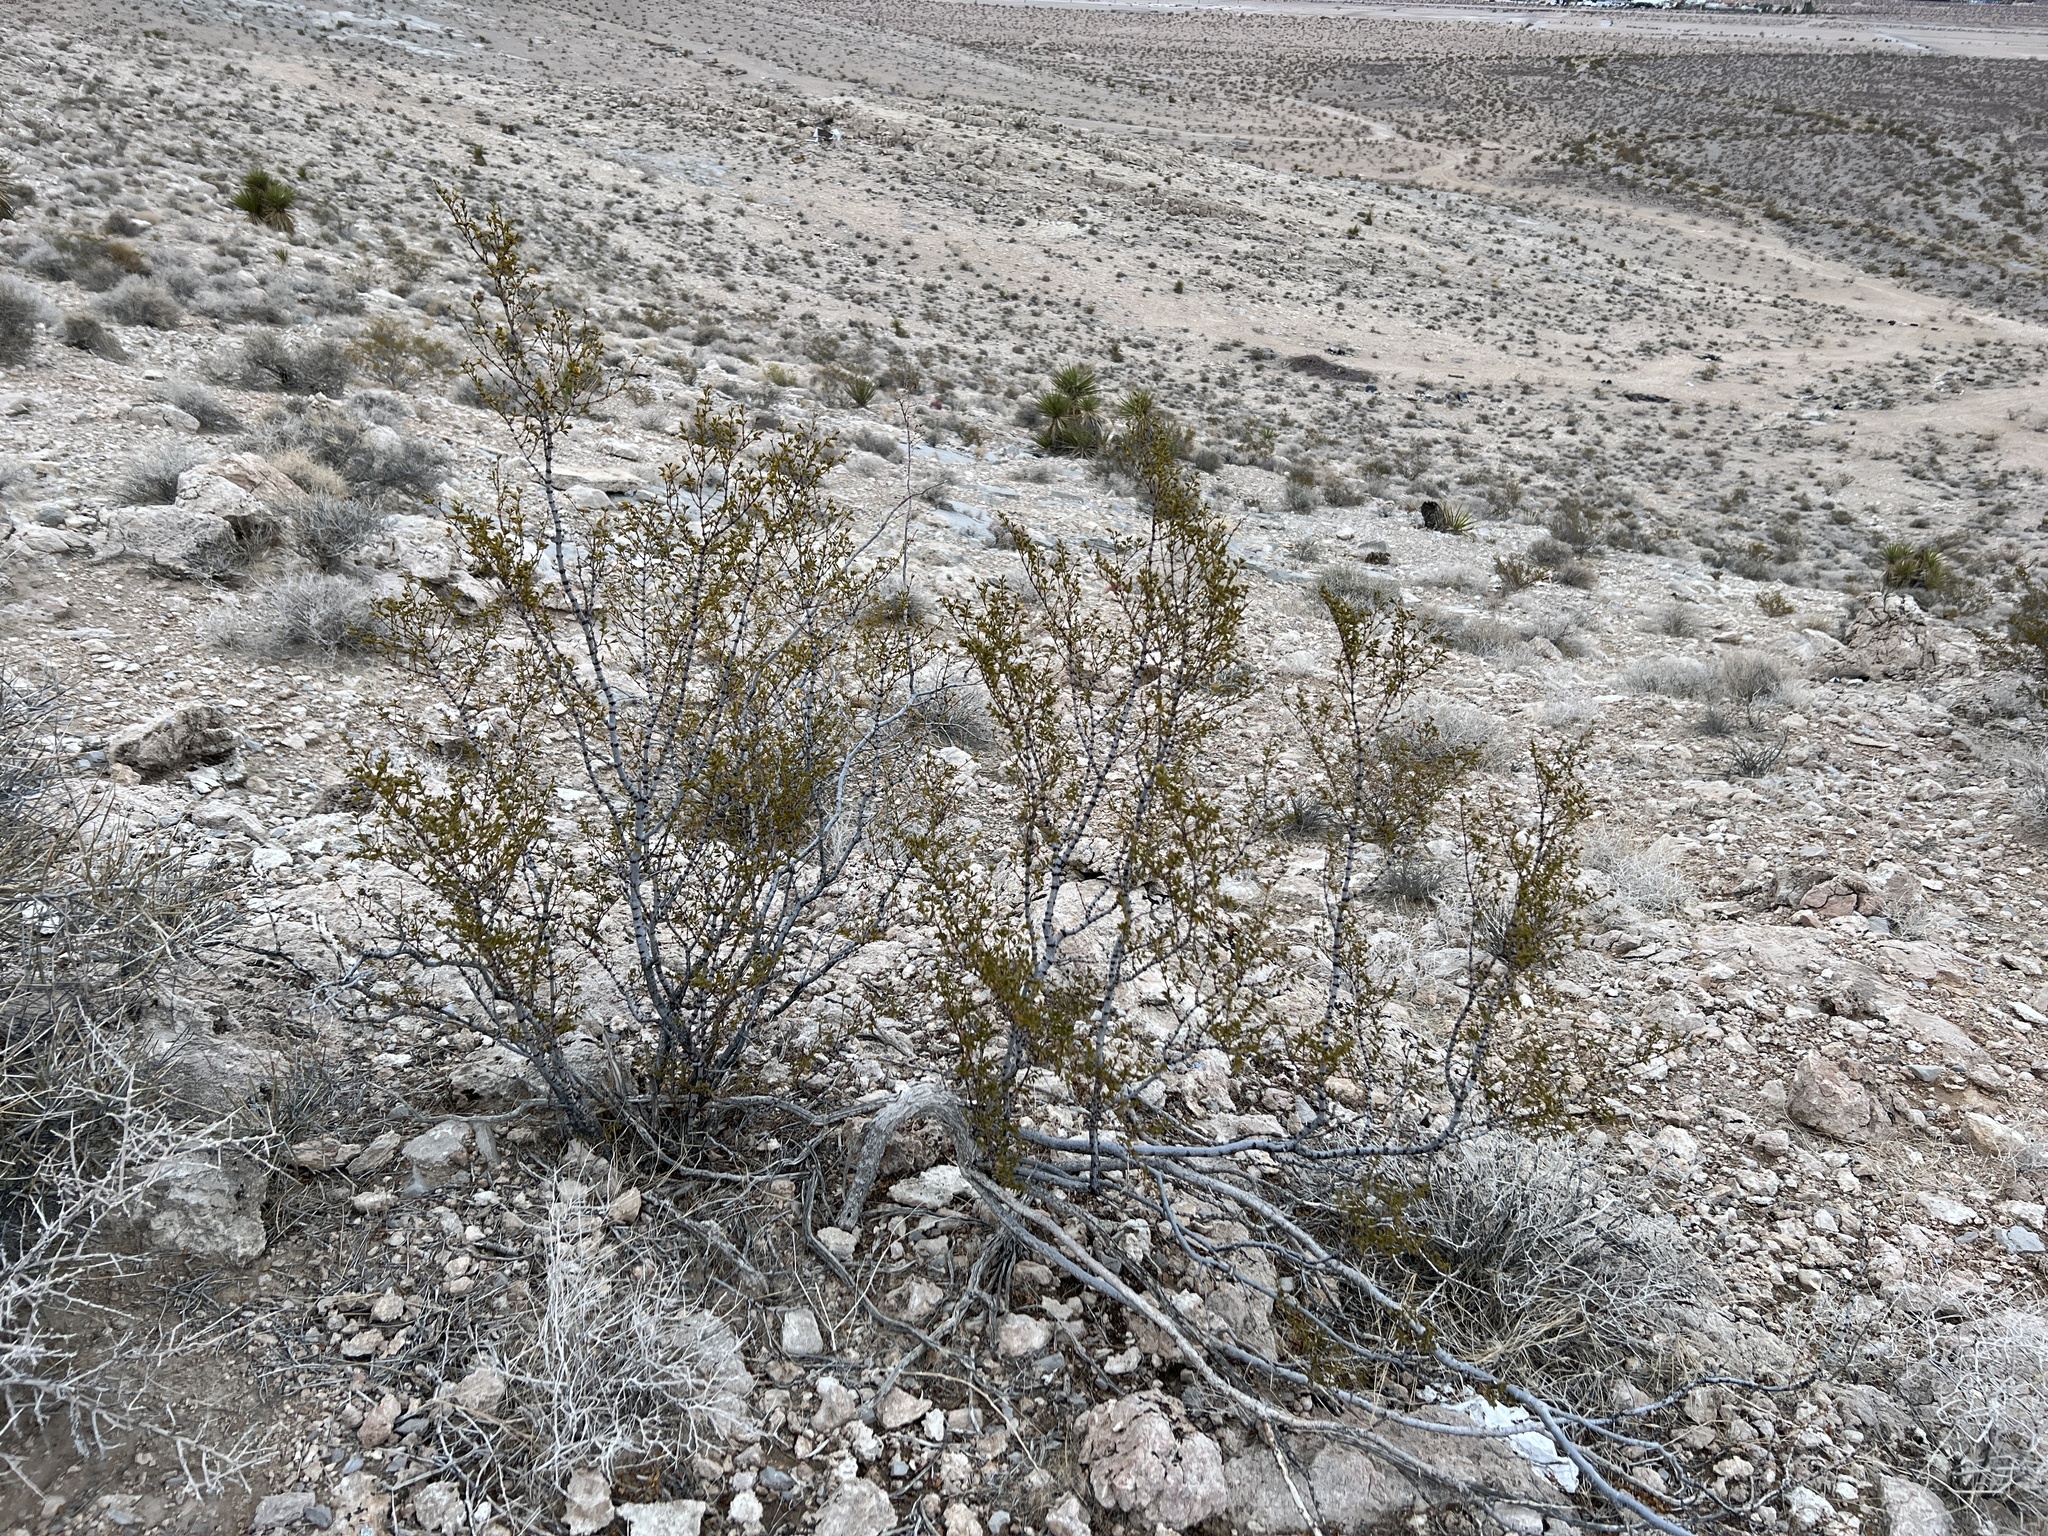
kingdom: Plantae
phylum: Tracheophyta
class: Magnoliopsida
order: Zygophyllales
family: Zygophyllaceae
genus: Larrea
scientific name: Larrea tridentata
